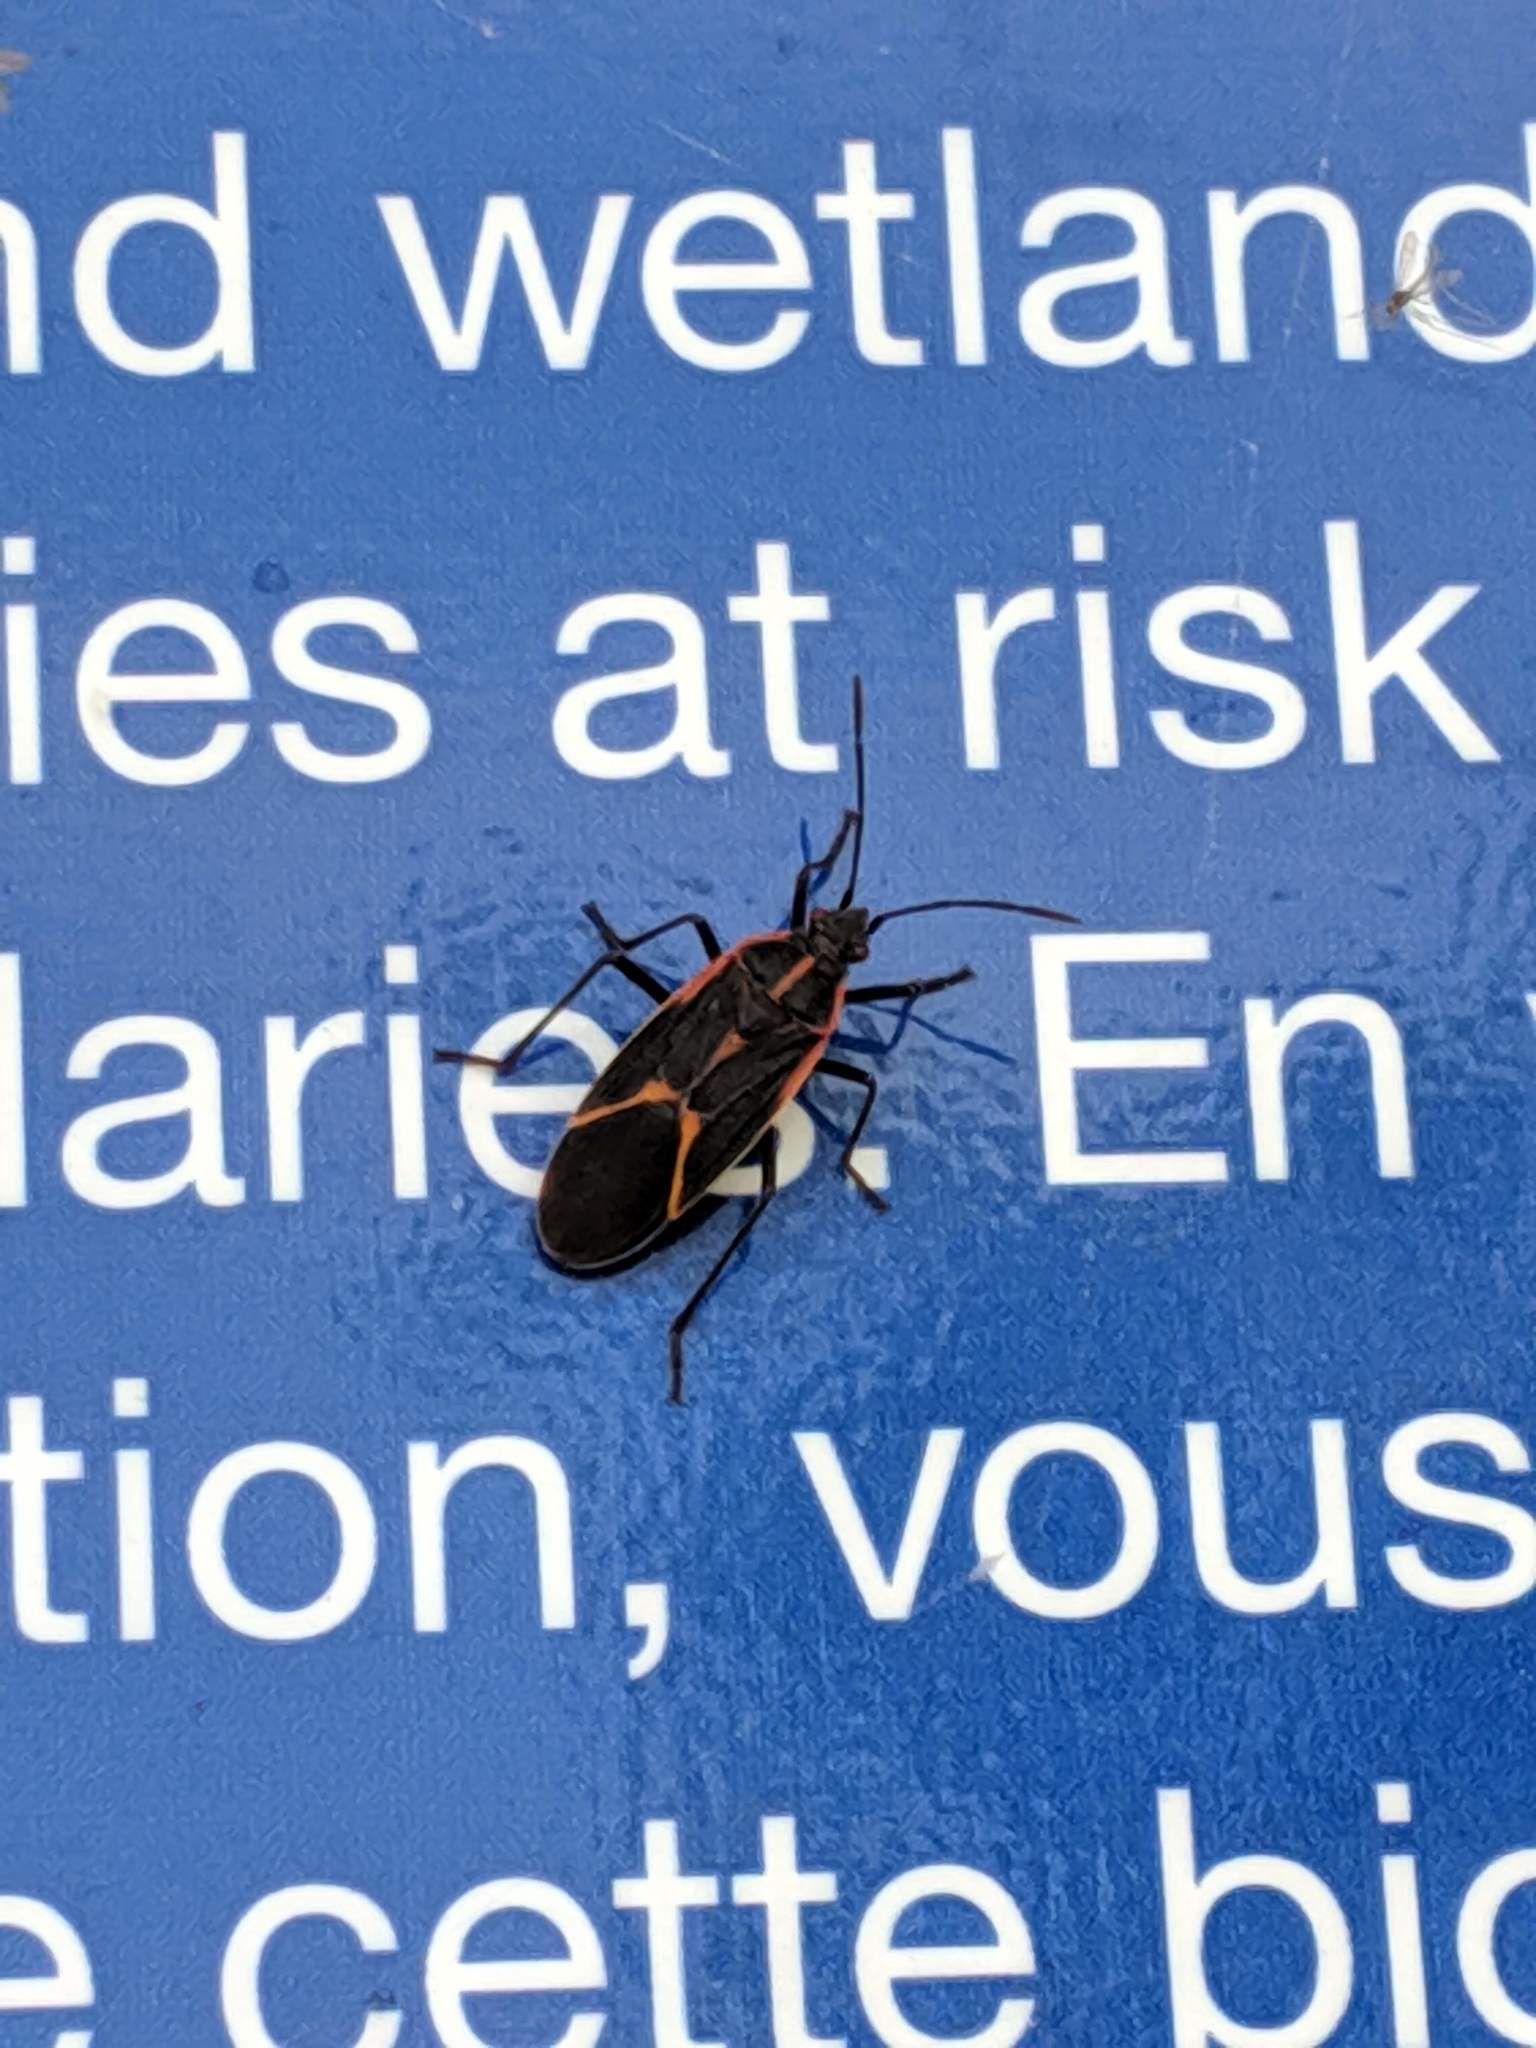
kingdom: Animalia
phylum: Arthropoda
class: Insecta
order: Hemiptera
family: Rhopalidae
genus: Boisea
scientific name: Boisea trivittata
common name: Boxelder bug
